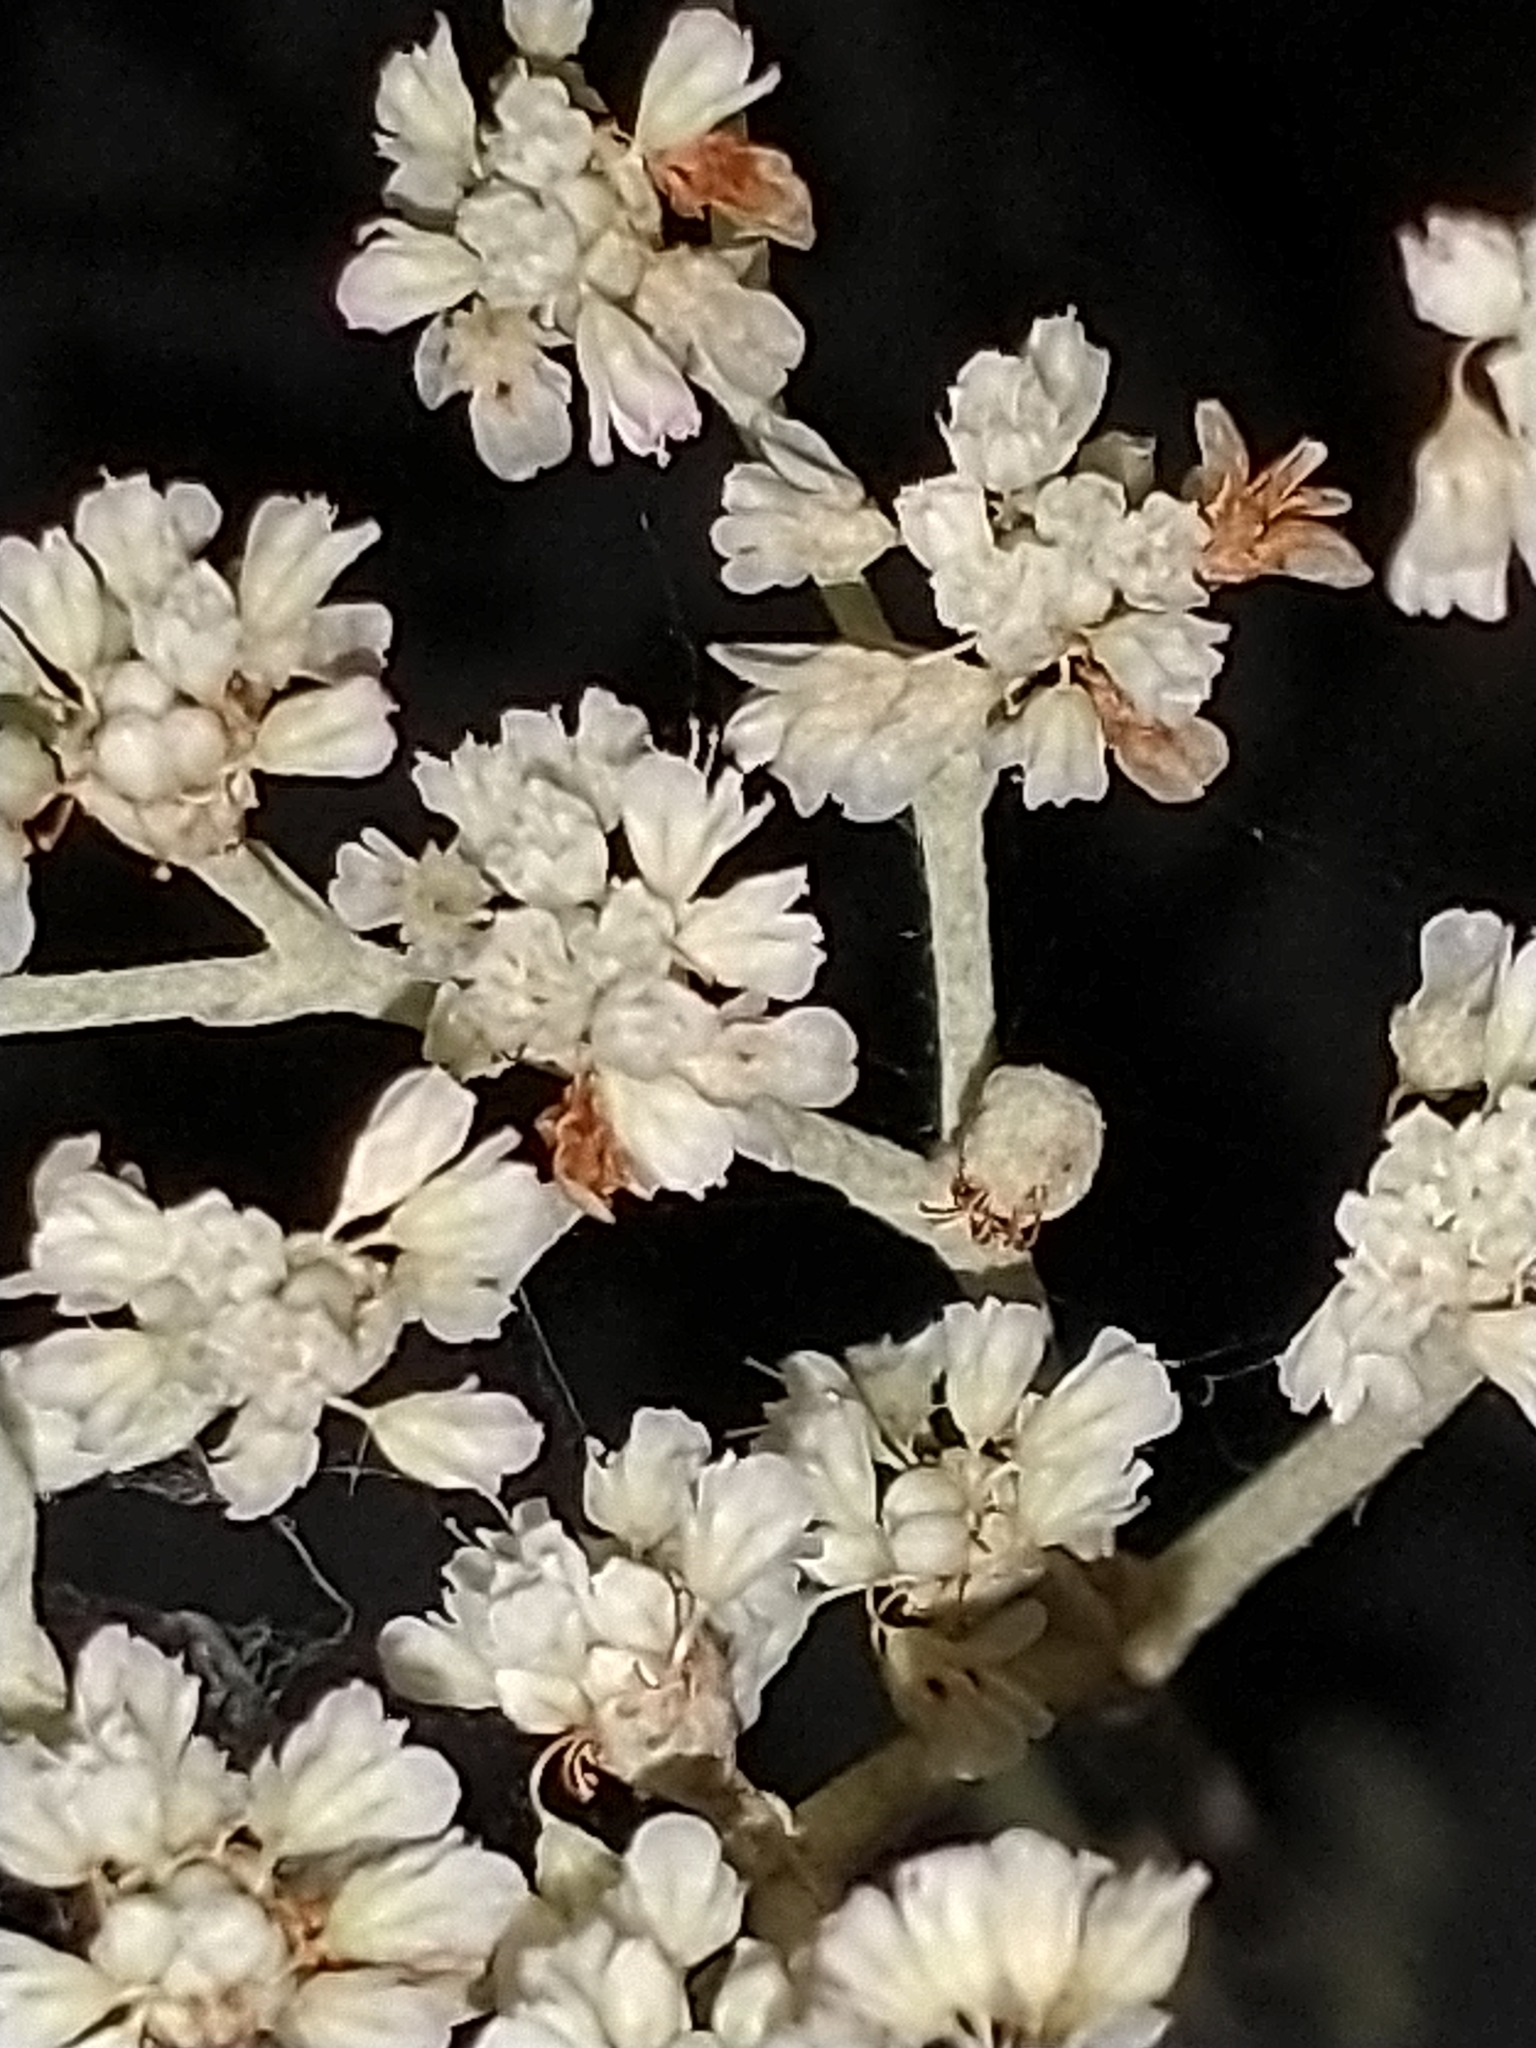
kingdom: Plantae
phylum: Tracheophyta
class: Magnoliopsida
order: Caryophyllales
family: Polygonaceae
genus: Eriogonum
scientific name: Eriogonum annuum
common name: Annual wild buckwheat
